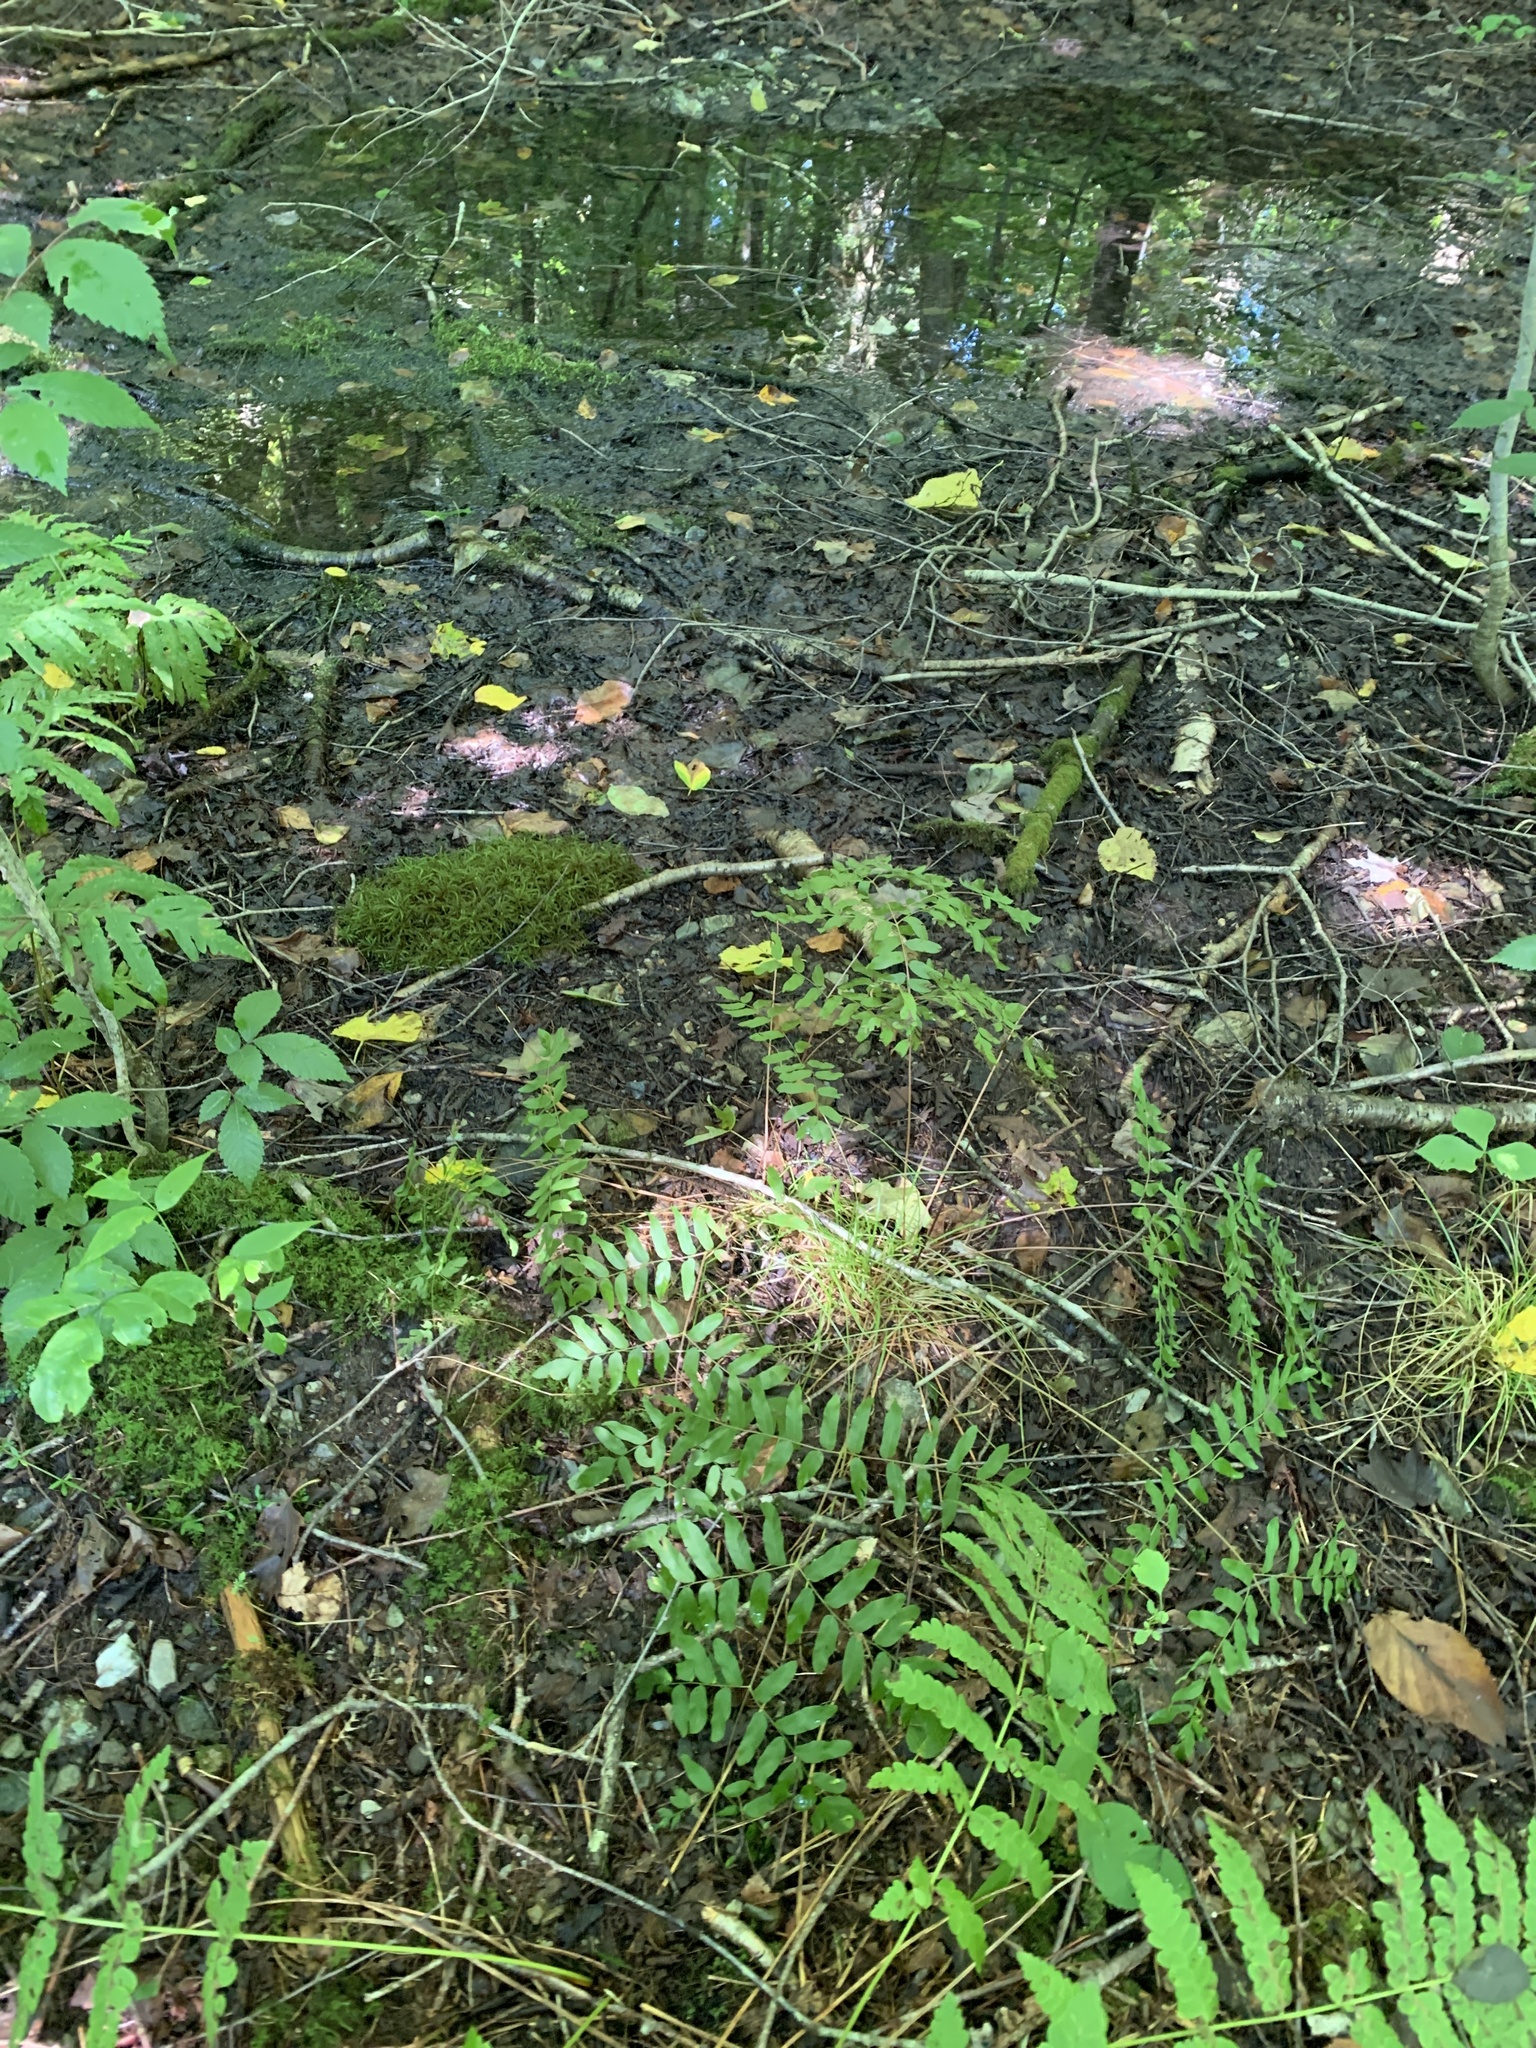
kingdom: Plantae
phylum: Tracheophyta
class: Polypodiopsida
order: Osmundales
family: Osmundaceae
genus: Osmunda
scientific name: Osmunda spectabilis
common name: American royal fern
